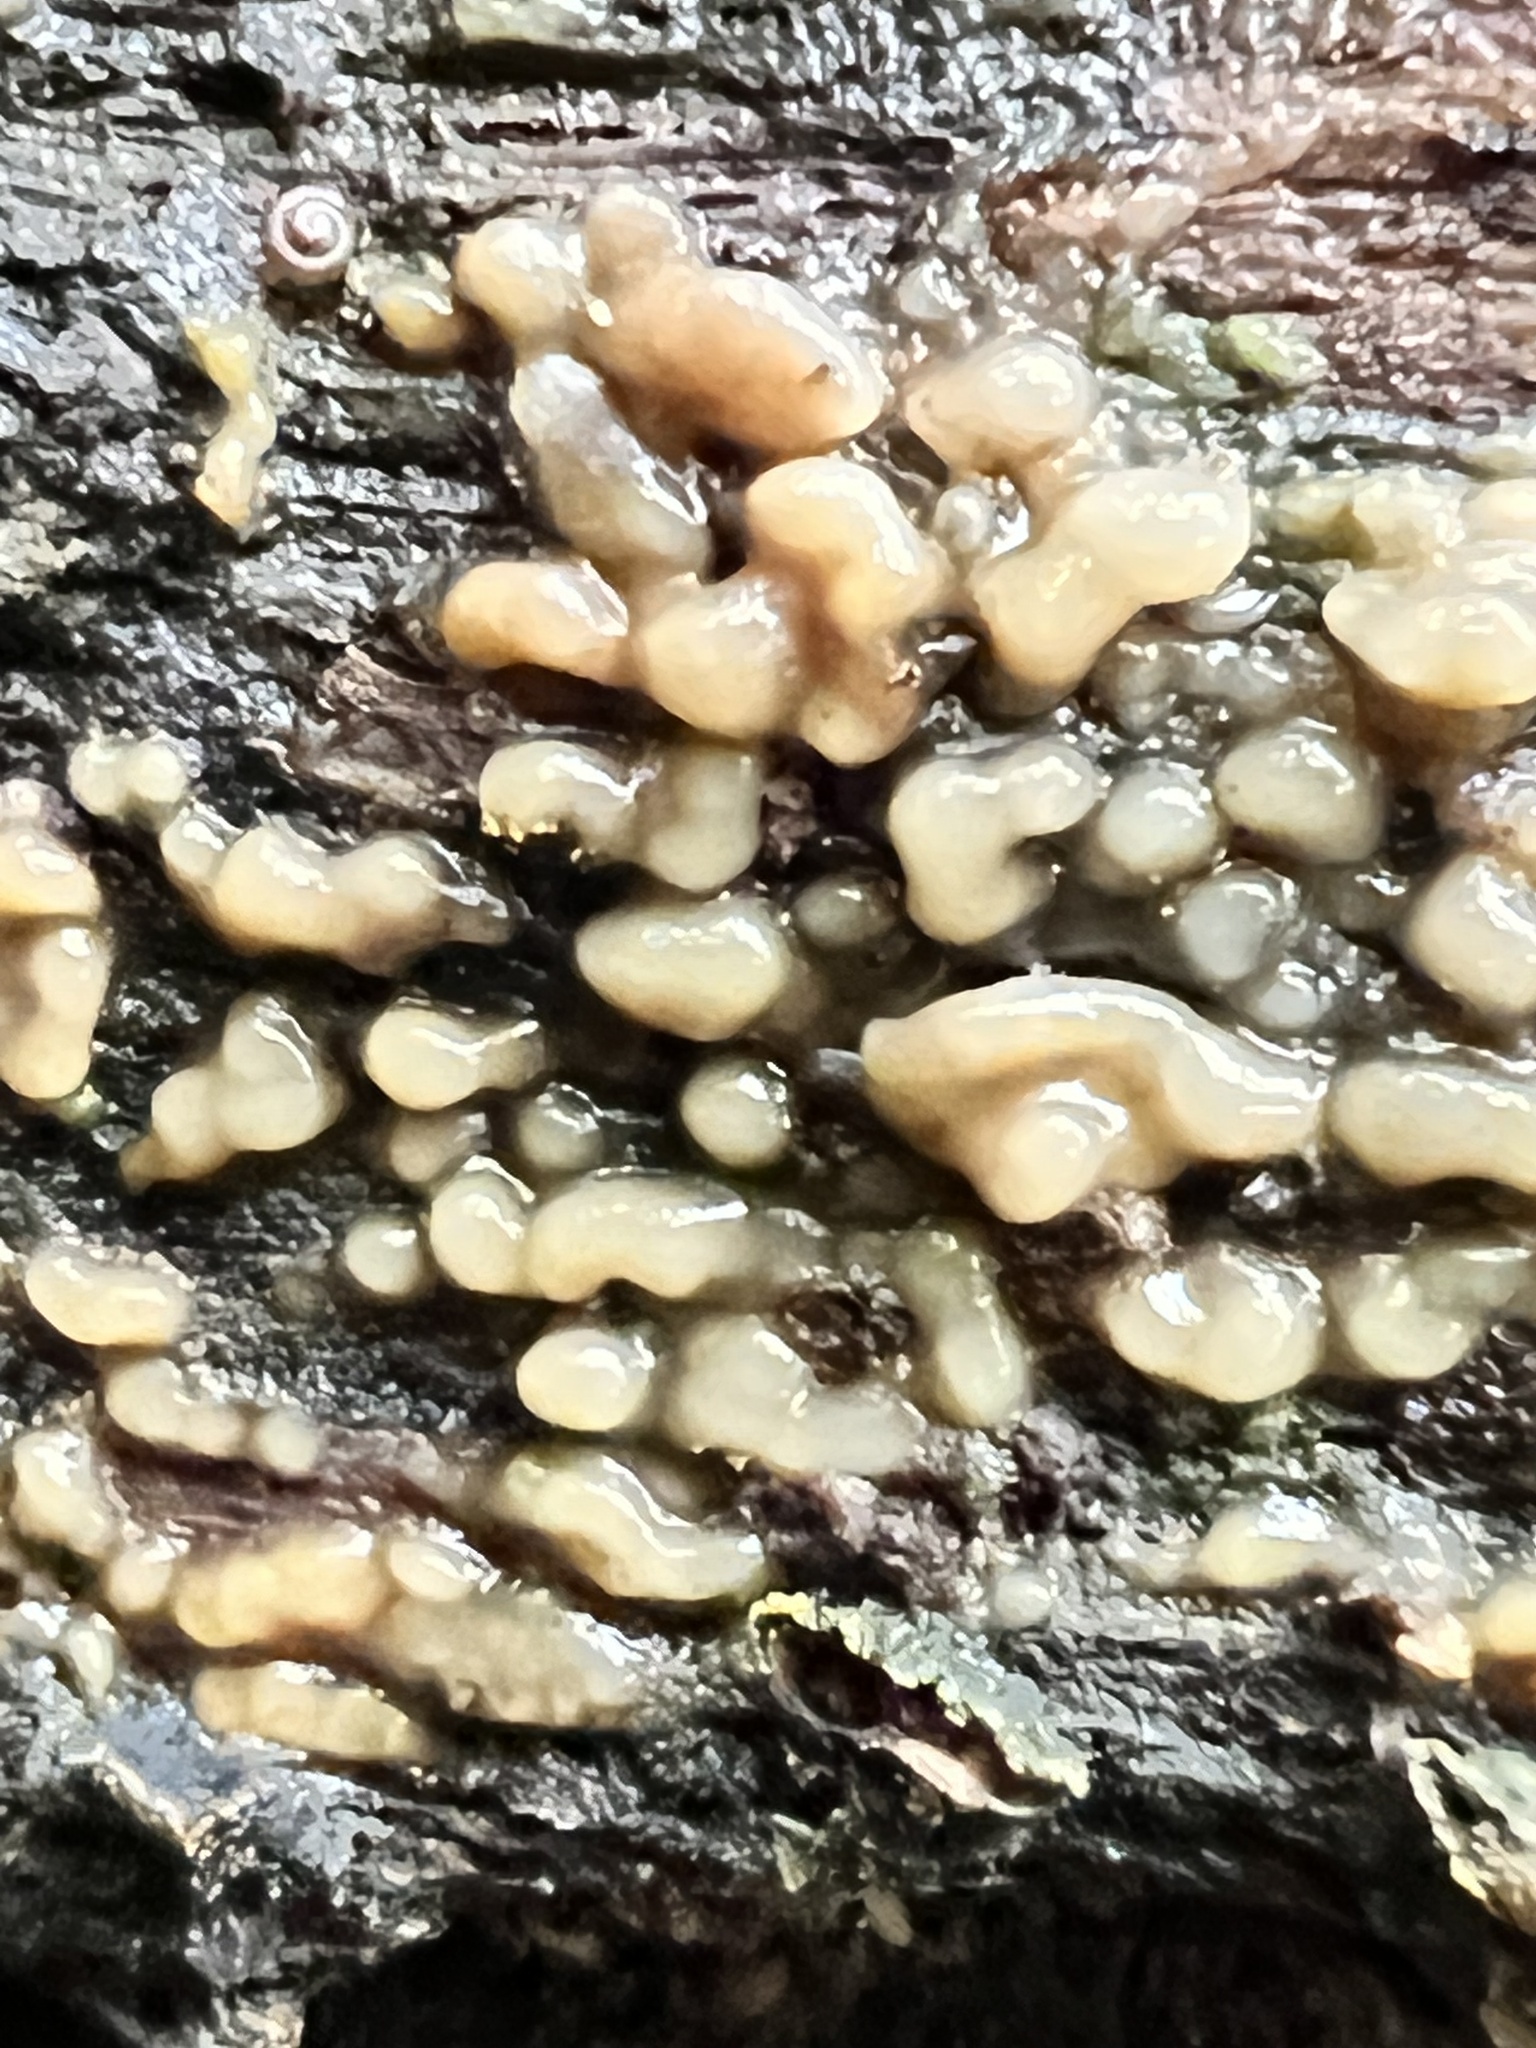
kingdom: Fungi
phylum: Basidiomycota
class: Atractiellomycetes
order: Atractiellales
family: Phleogenaceae
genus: Helicogloea
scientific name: Helicogloea compressa
